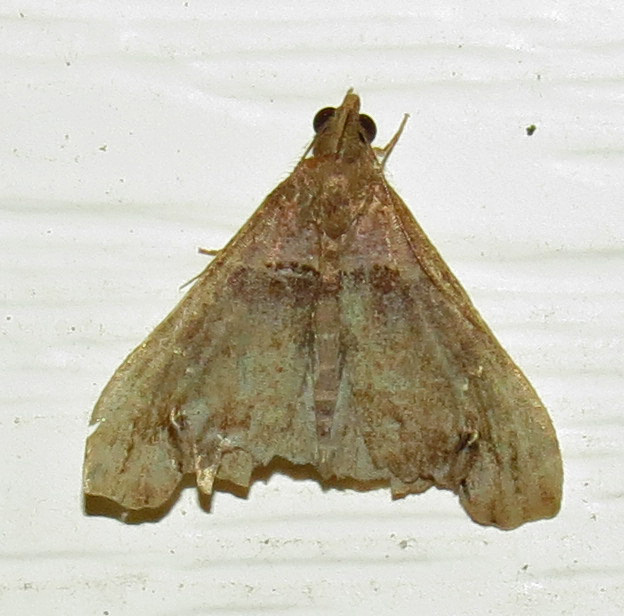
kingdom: Animalia
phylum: Arthropoda
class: Insecta
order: Lepidoptera
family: Erebidae
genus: Lascoria
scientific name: Lascoria ambigualis
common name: Ambiguous moth
